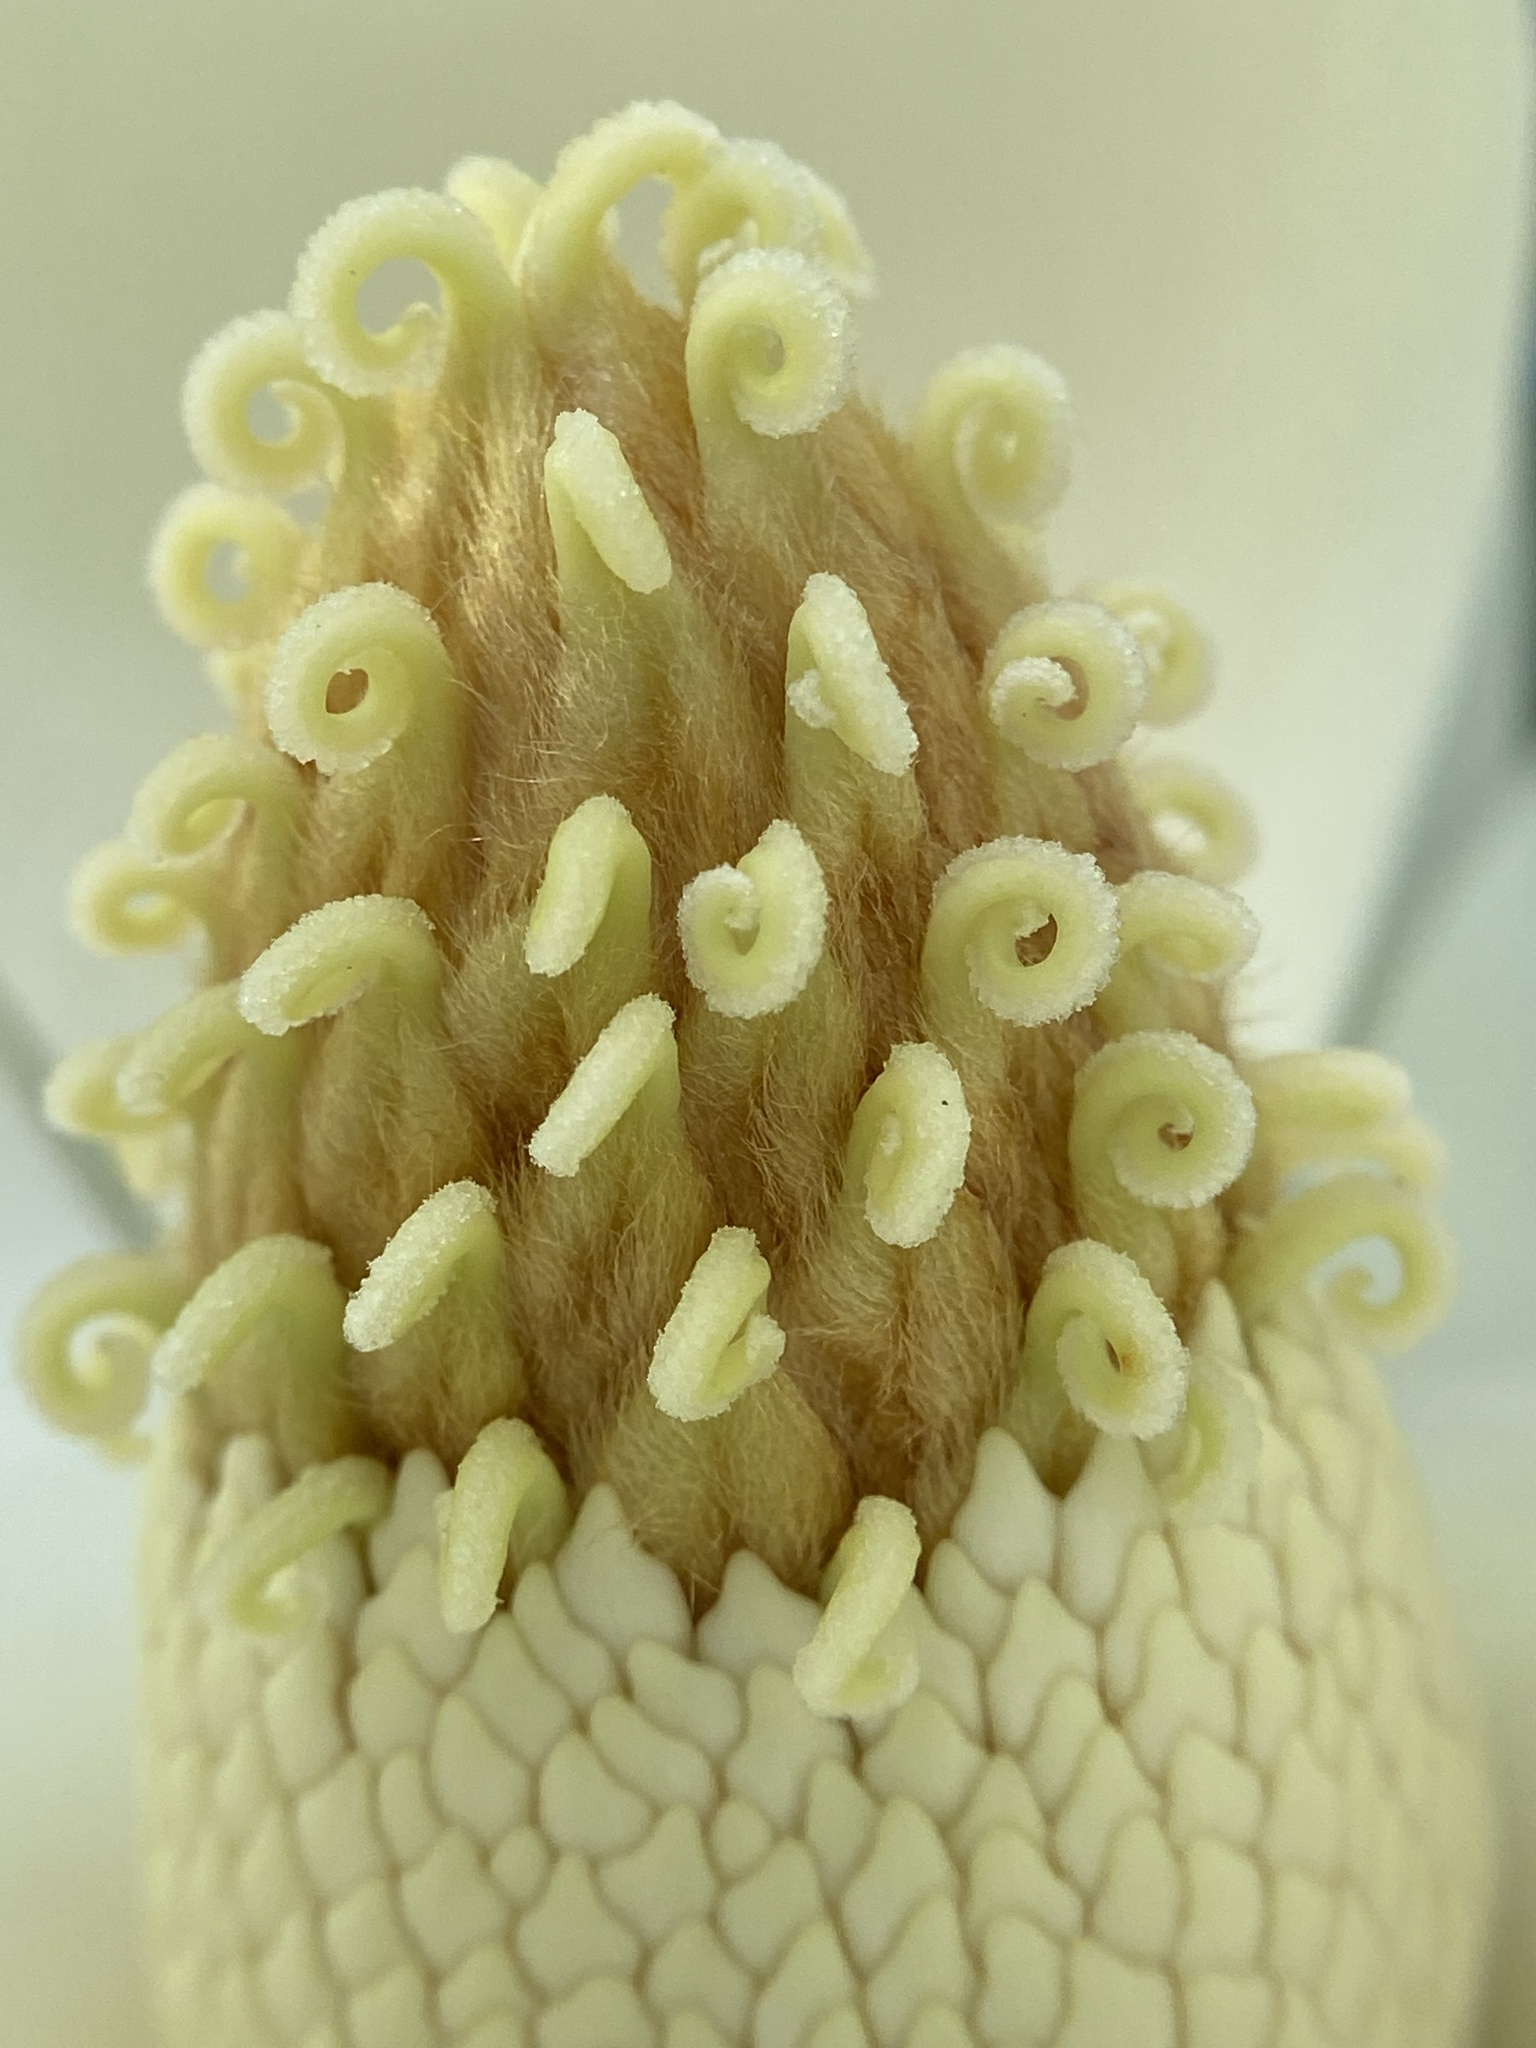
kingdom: Plantae
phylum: Tracheophyta
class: Magnoliopsida
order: Magnoliales
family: Magnoliaceae
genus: Magnolia
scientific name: Magnolia grandiflora
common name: Southern magnolia
